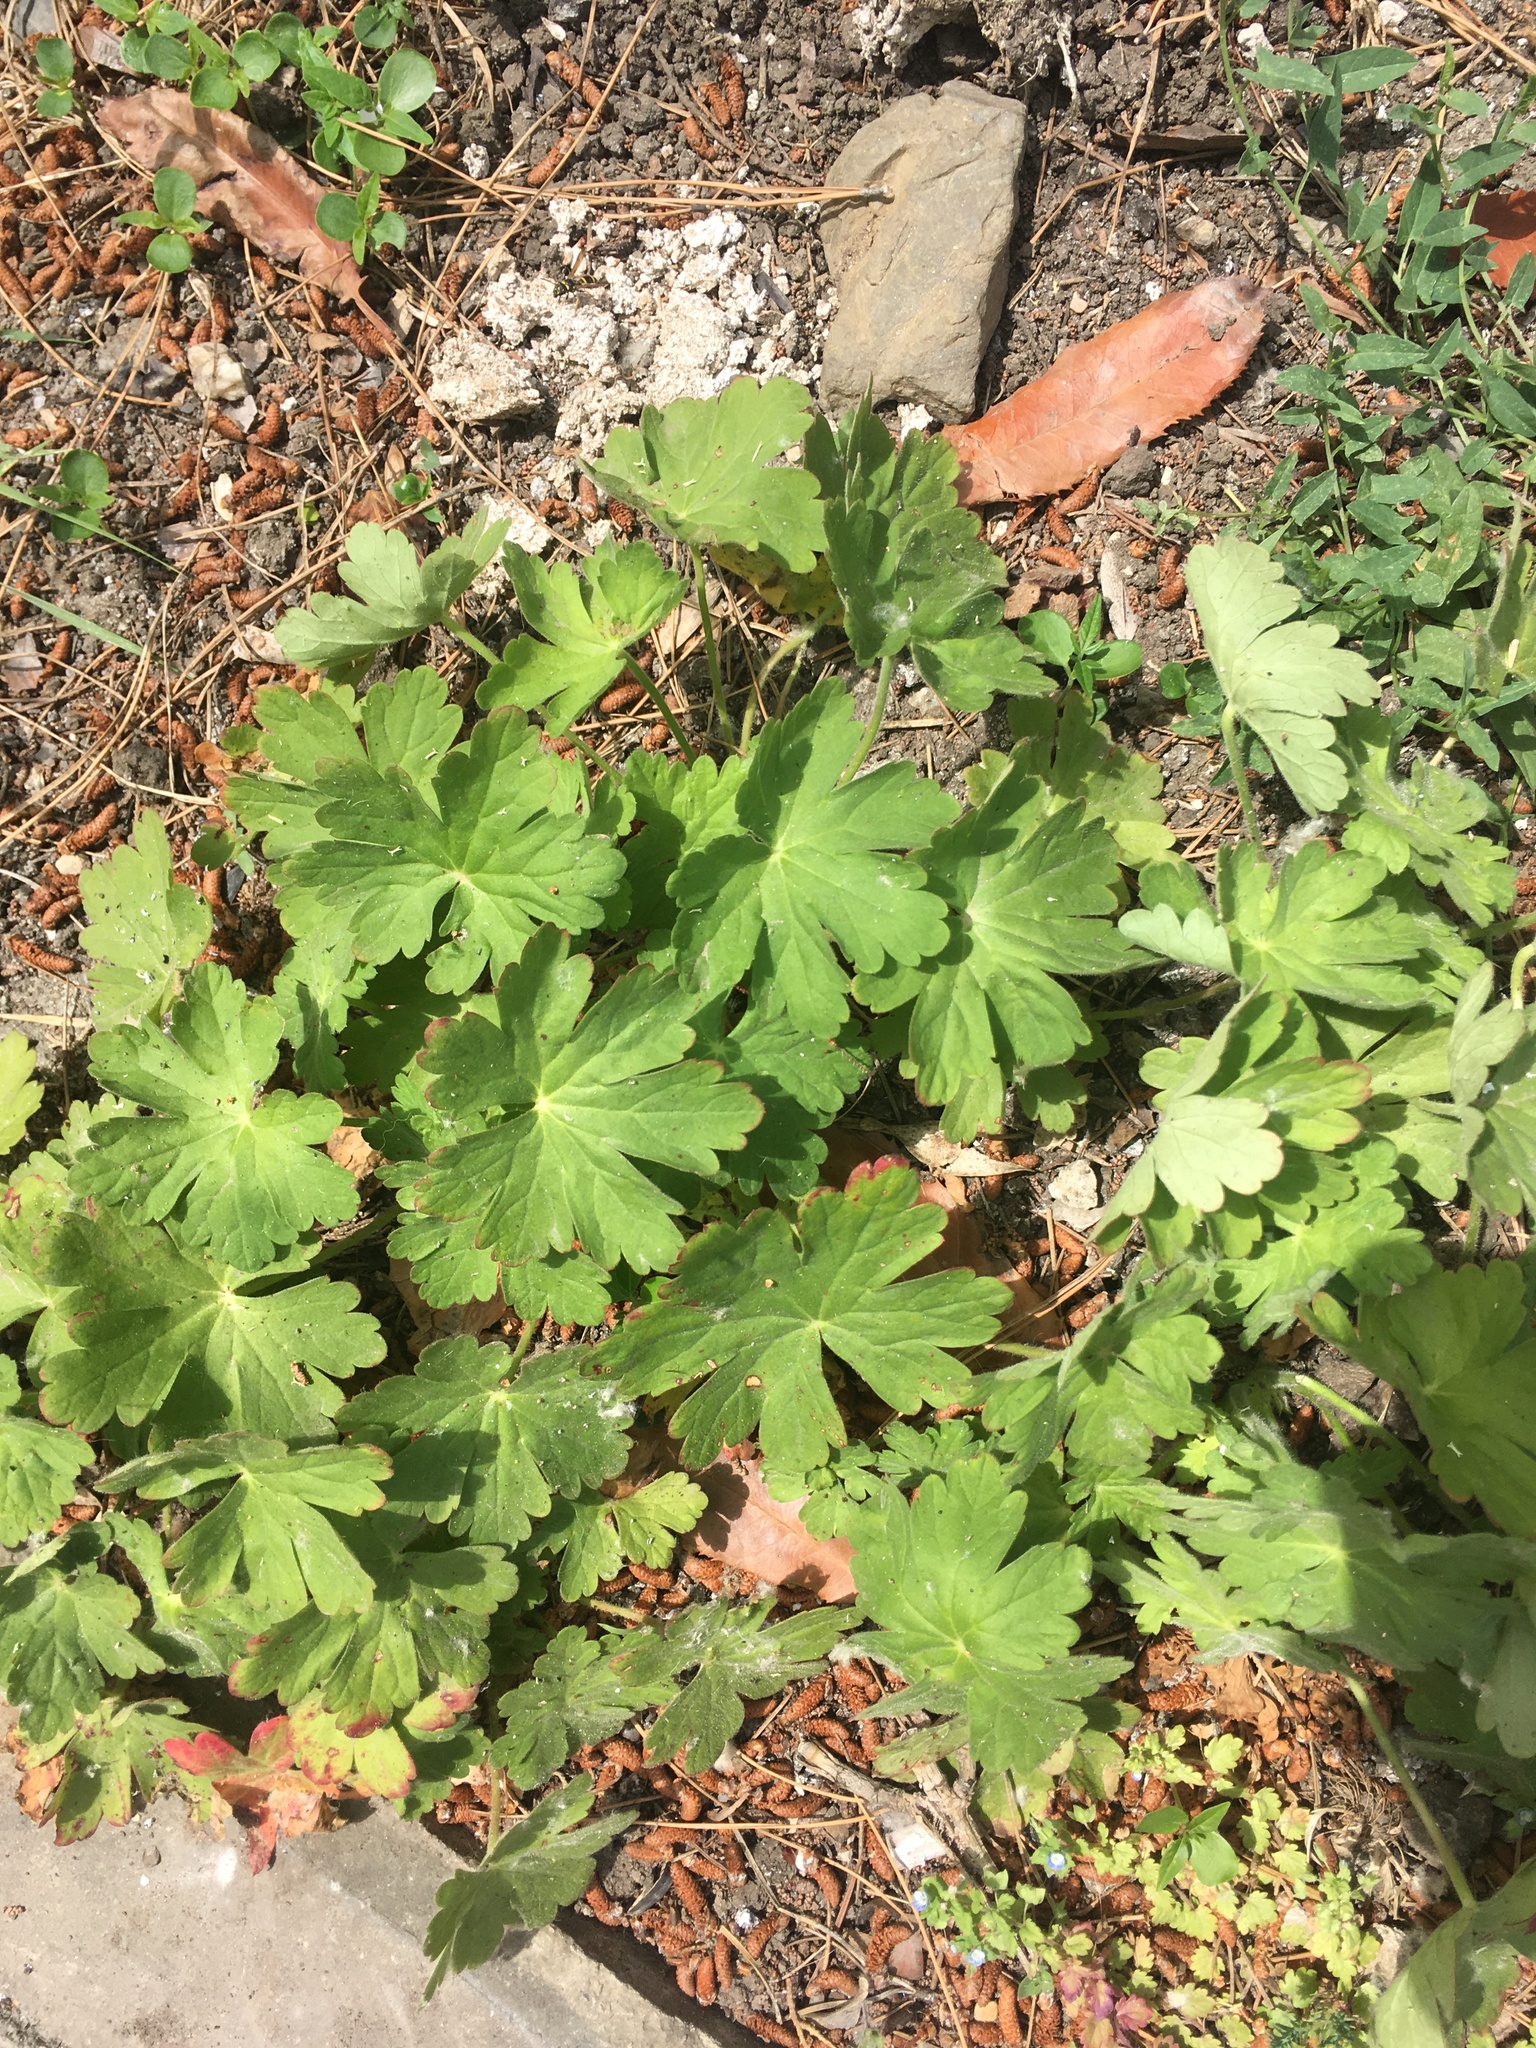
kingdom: Plantae
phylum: Tracheophyta
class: Magnoliopsida
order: Geraniales
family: Geraniaceae
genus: Geranium
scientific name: Geranium macrorrhizum
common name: Rock crane's-bill
